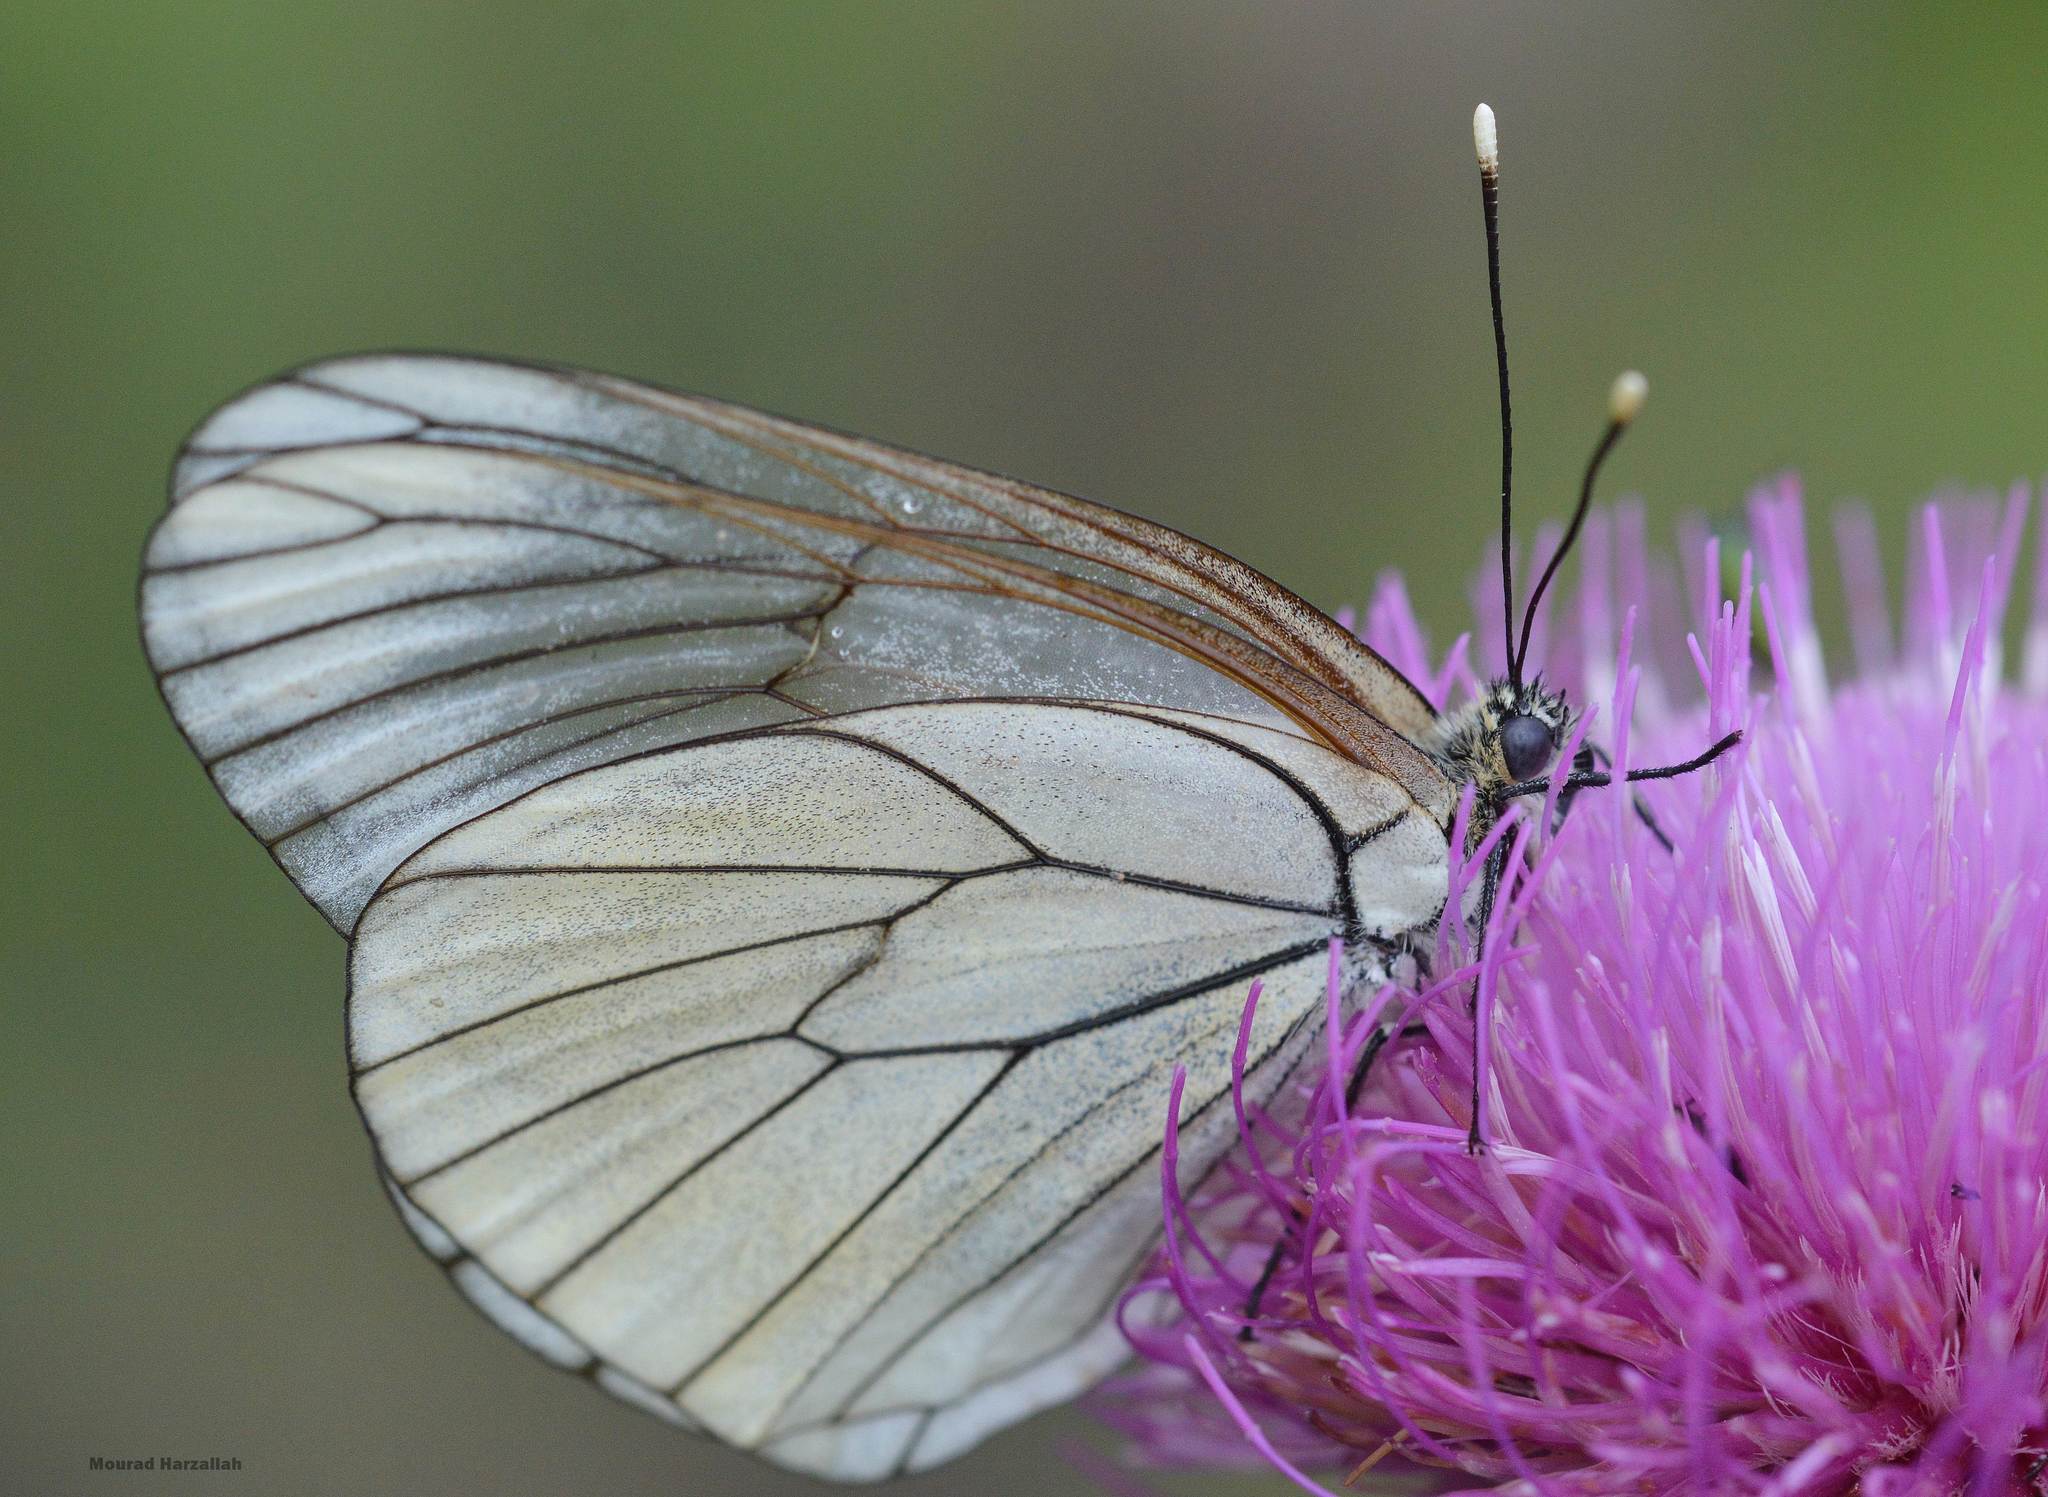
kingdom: Animalia
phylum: Arthropoda
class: Insecta
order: Lepidoptera
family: Pieridae
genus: Aporia
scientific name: Aporia crataegi
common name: Black-veined white
